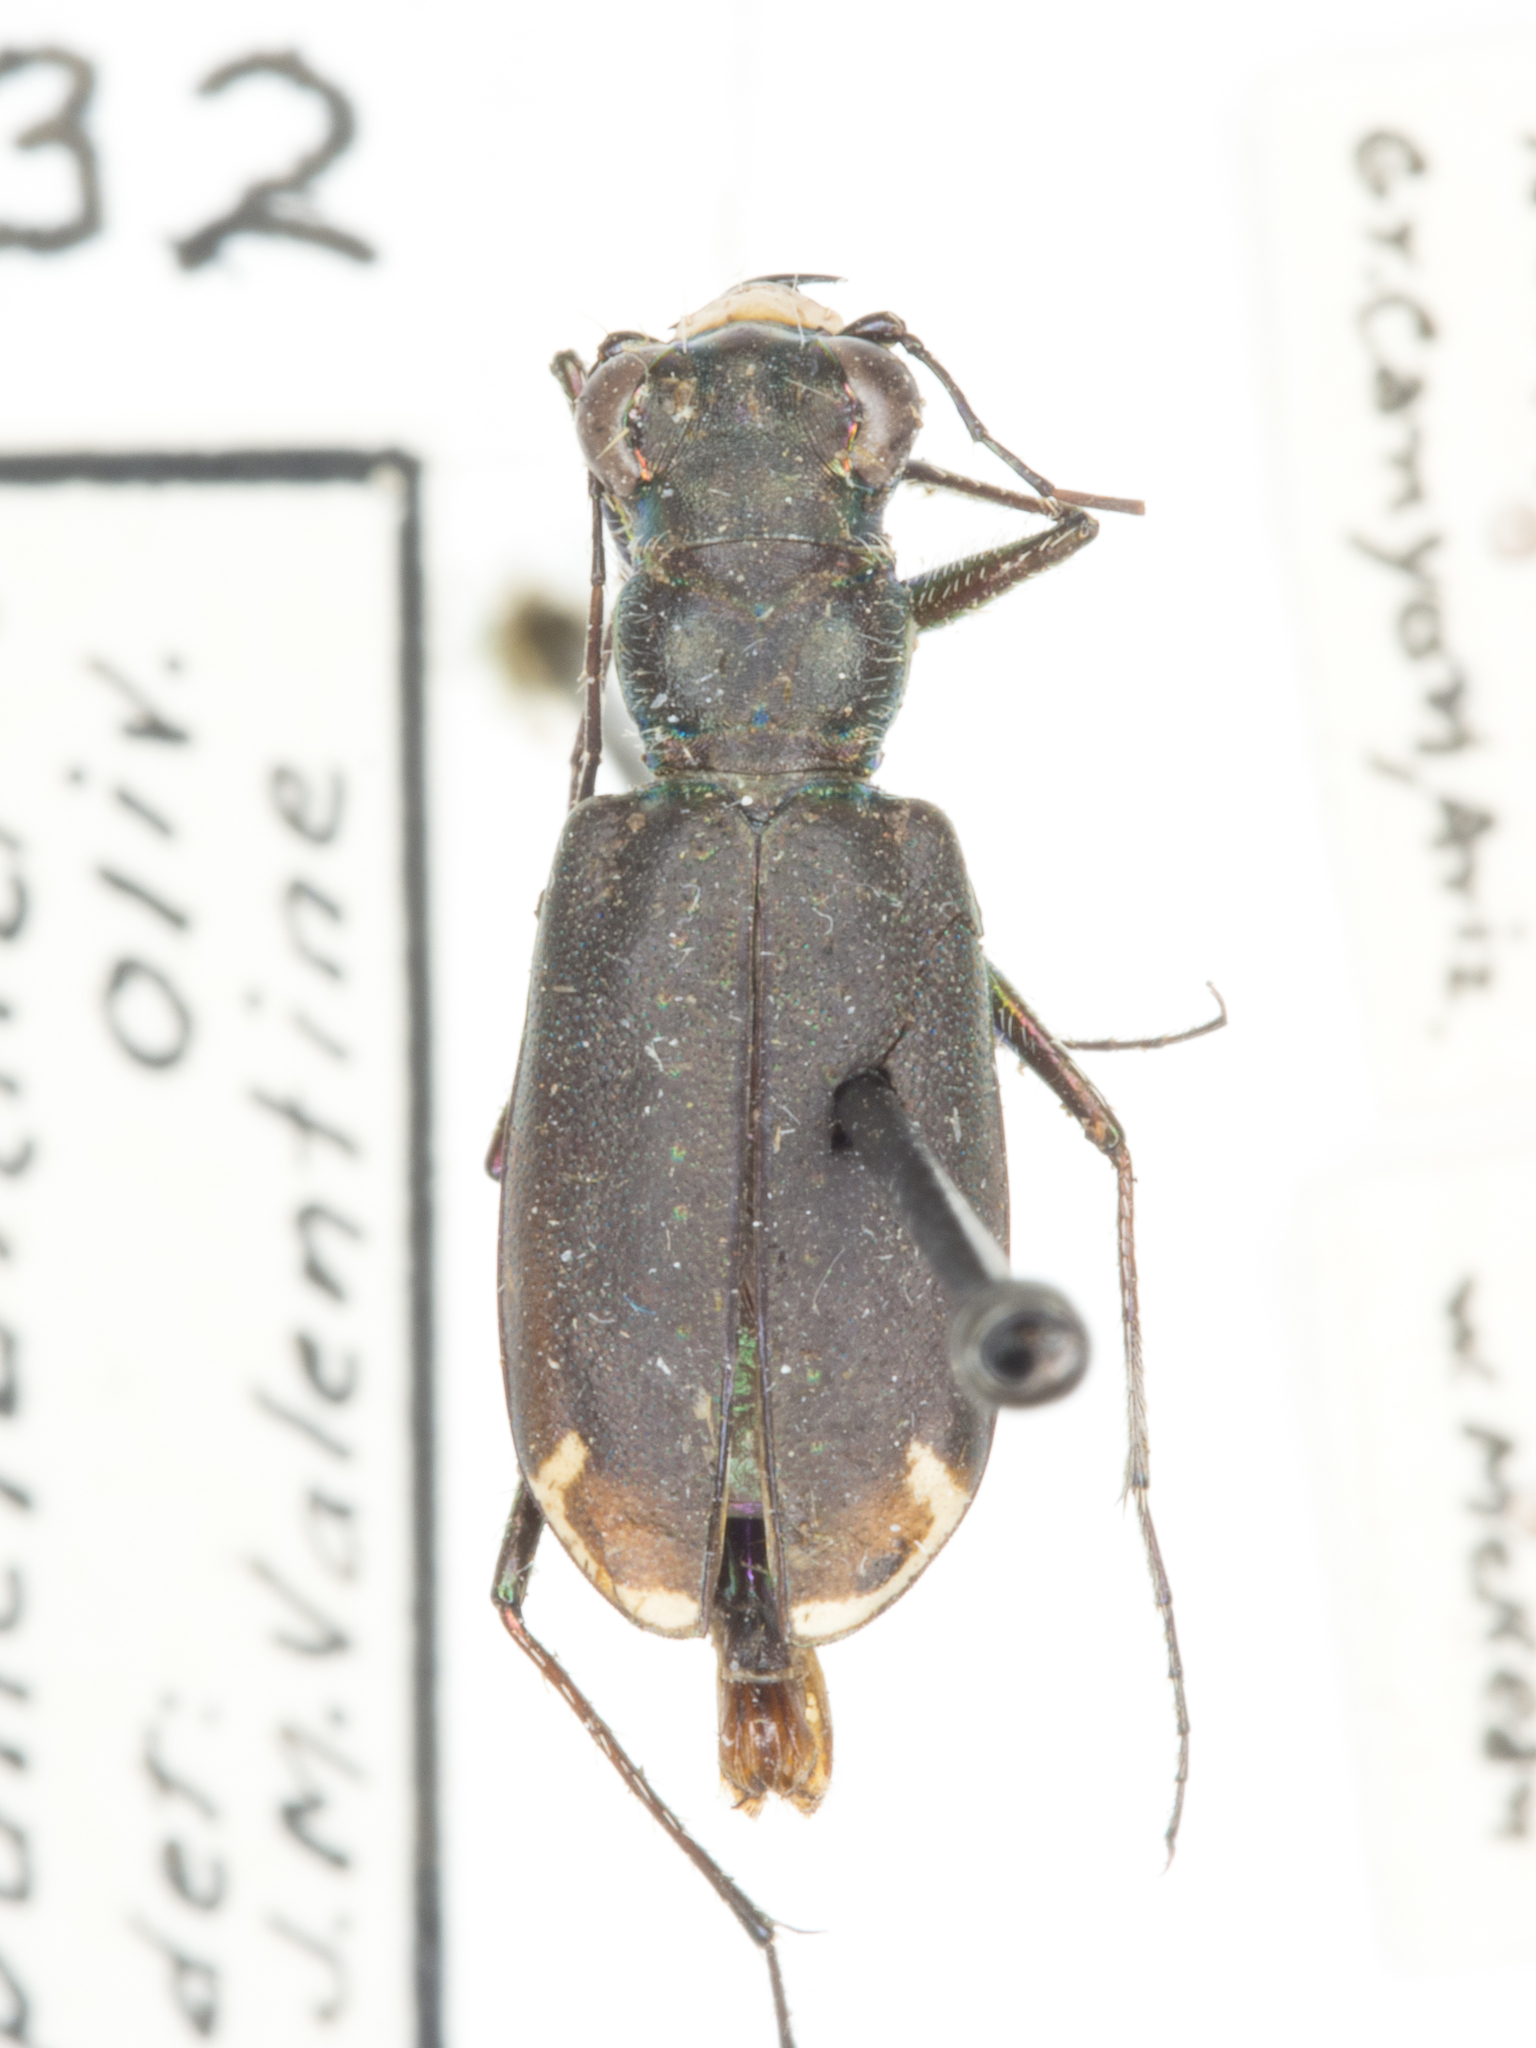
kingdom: Animalia
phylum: Arthropoda
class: Insecta
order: Coleoptera
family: Carabidae
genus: Cicindela
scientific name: Cicindela punctulata
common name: Punctured tiger beetle
